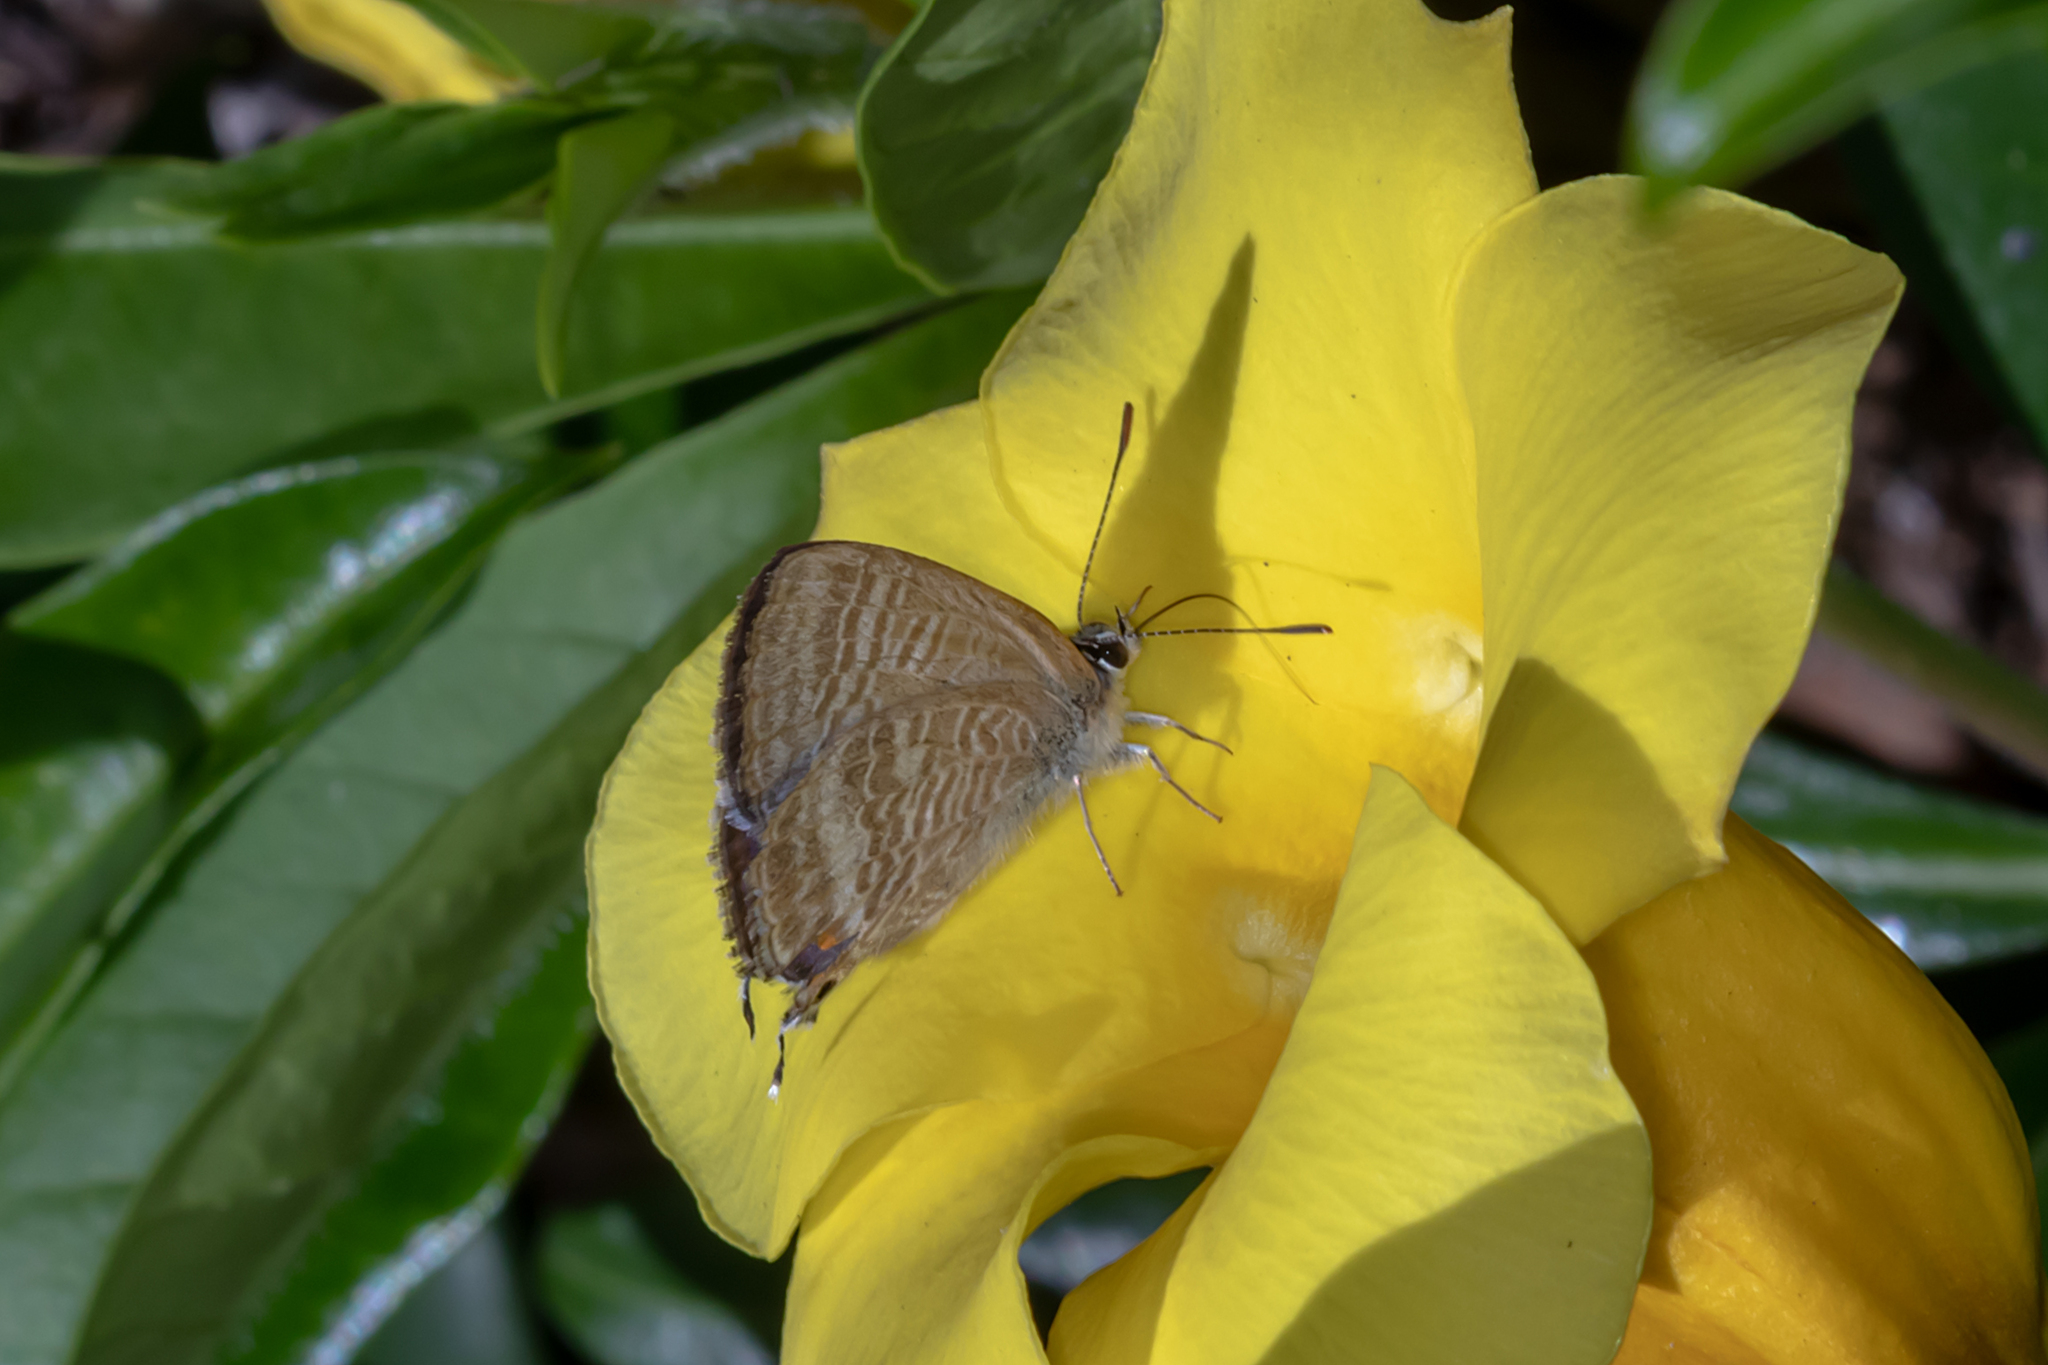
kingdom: Animalia
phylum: Arthropoda
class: Insecta
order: Lepidoptera
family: Lycaenidae
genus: Lampides
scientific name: Lampides boeticus
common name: Long-tailed blue
